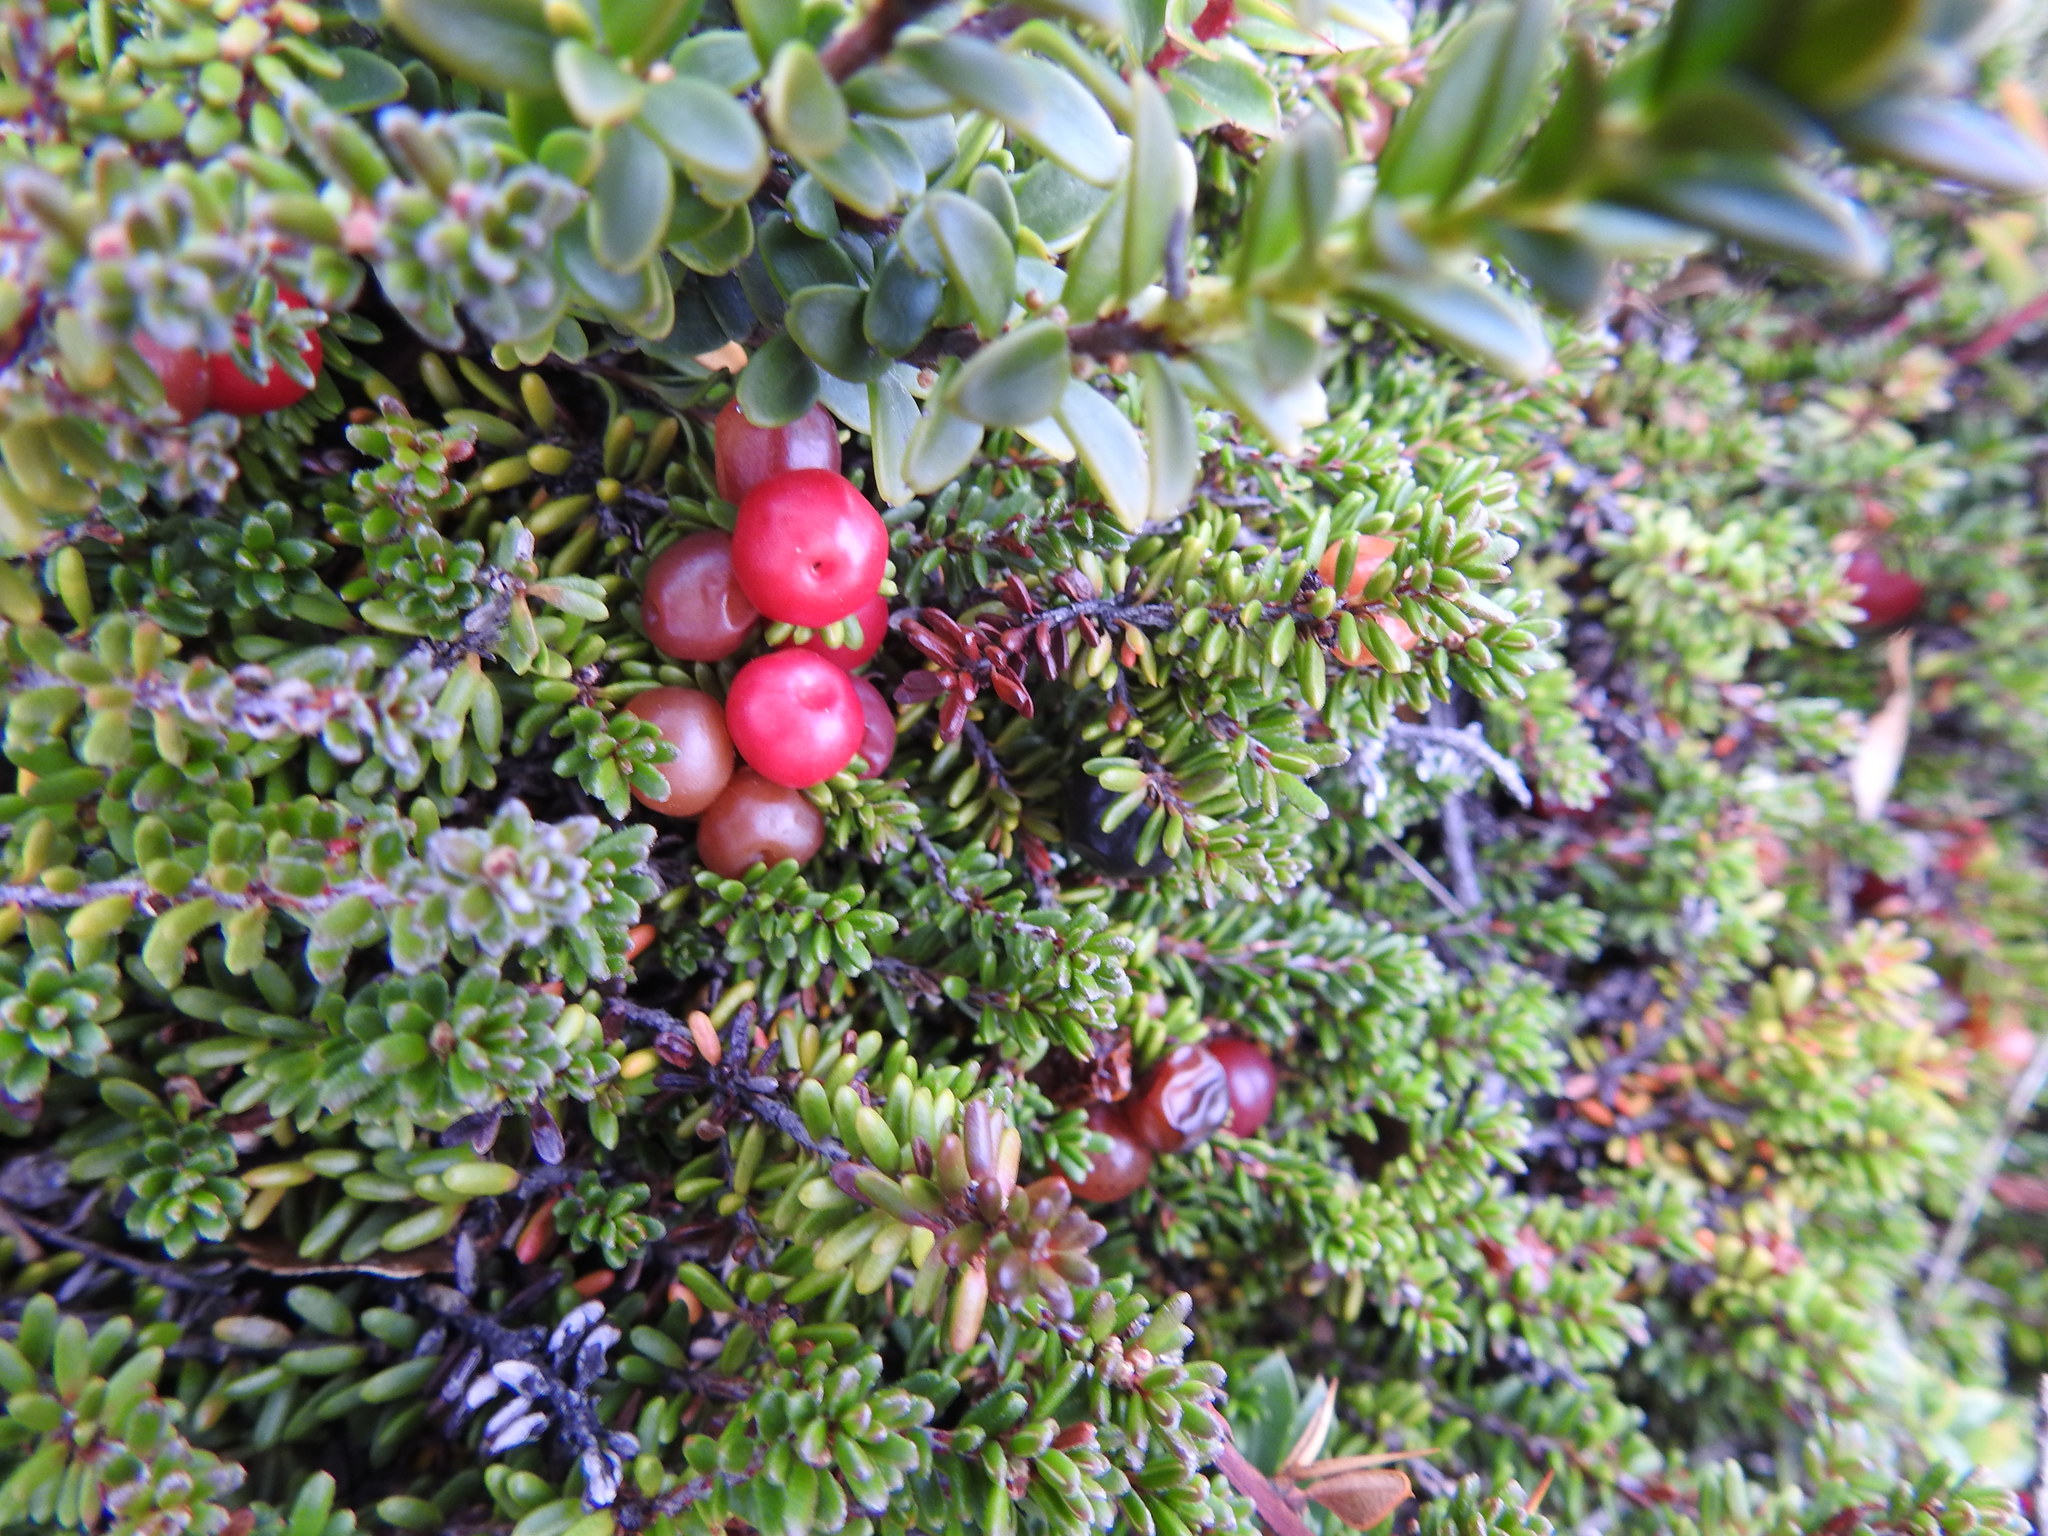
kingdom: Plantae
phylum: Tracheophyta
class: Magnoliopsida
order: Ericales
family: Ericaceae
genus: Empetrum
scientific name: Empetrum rubrum
